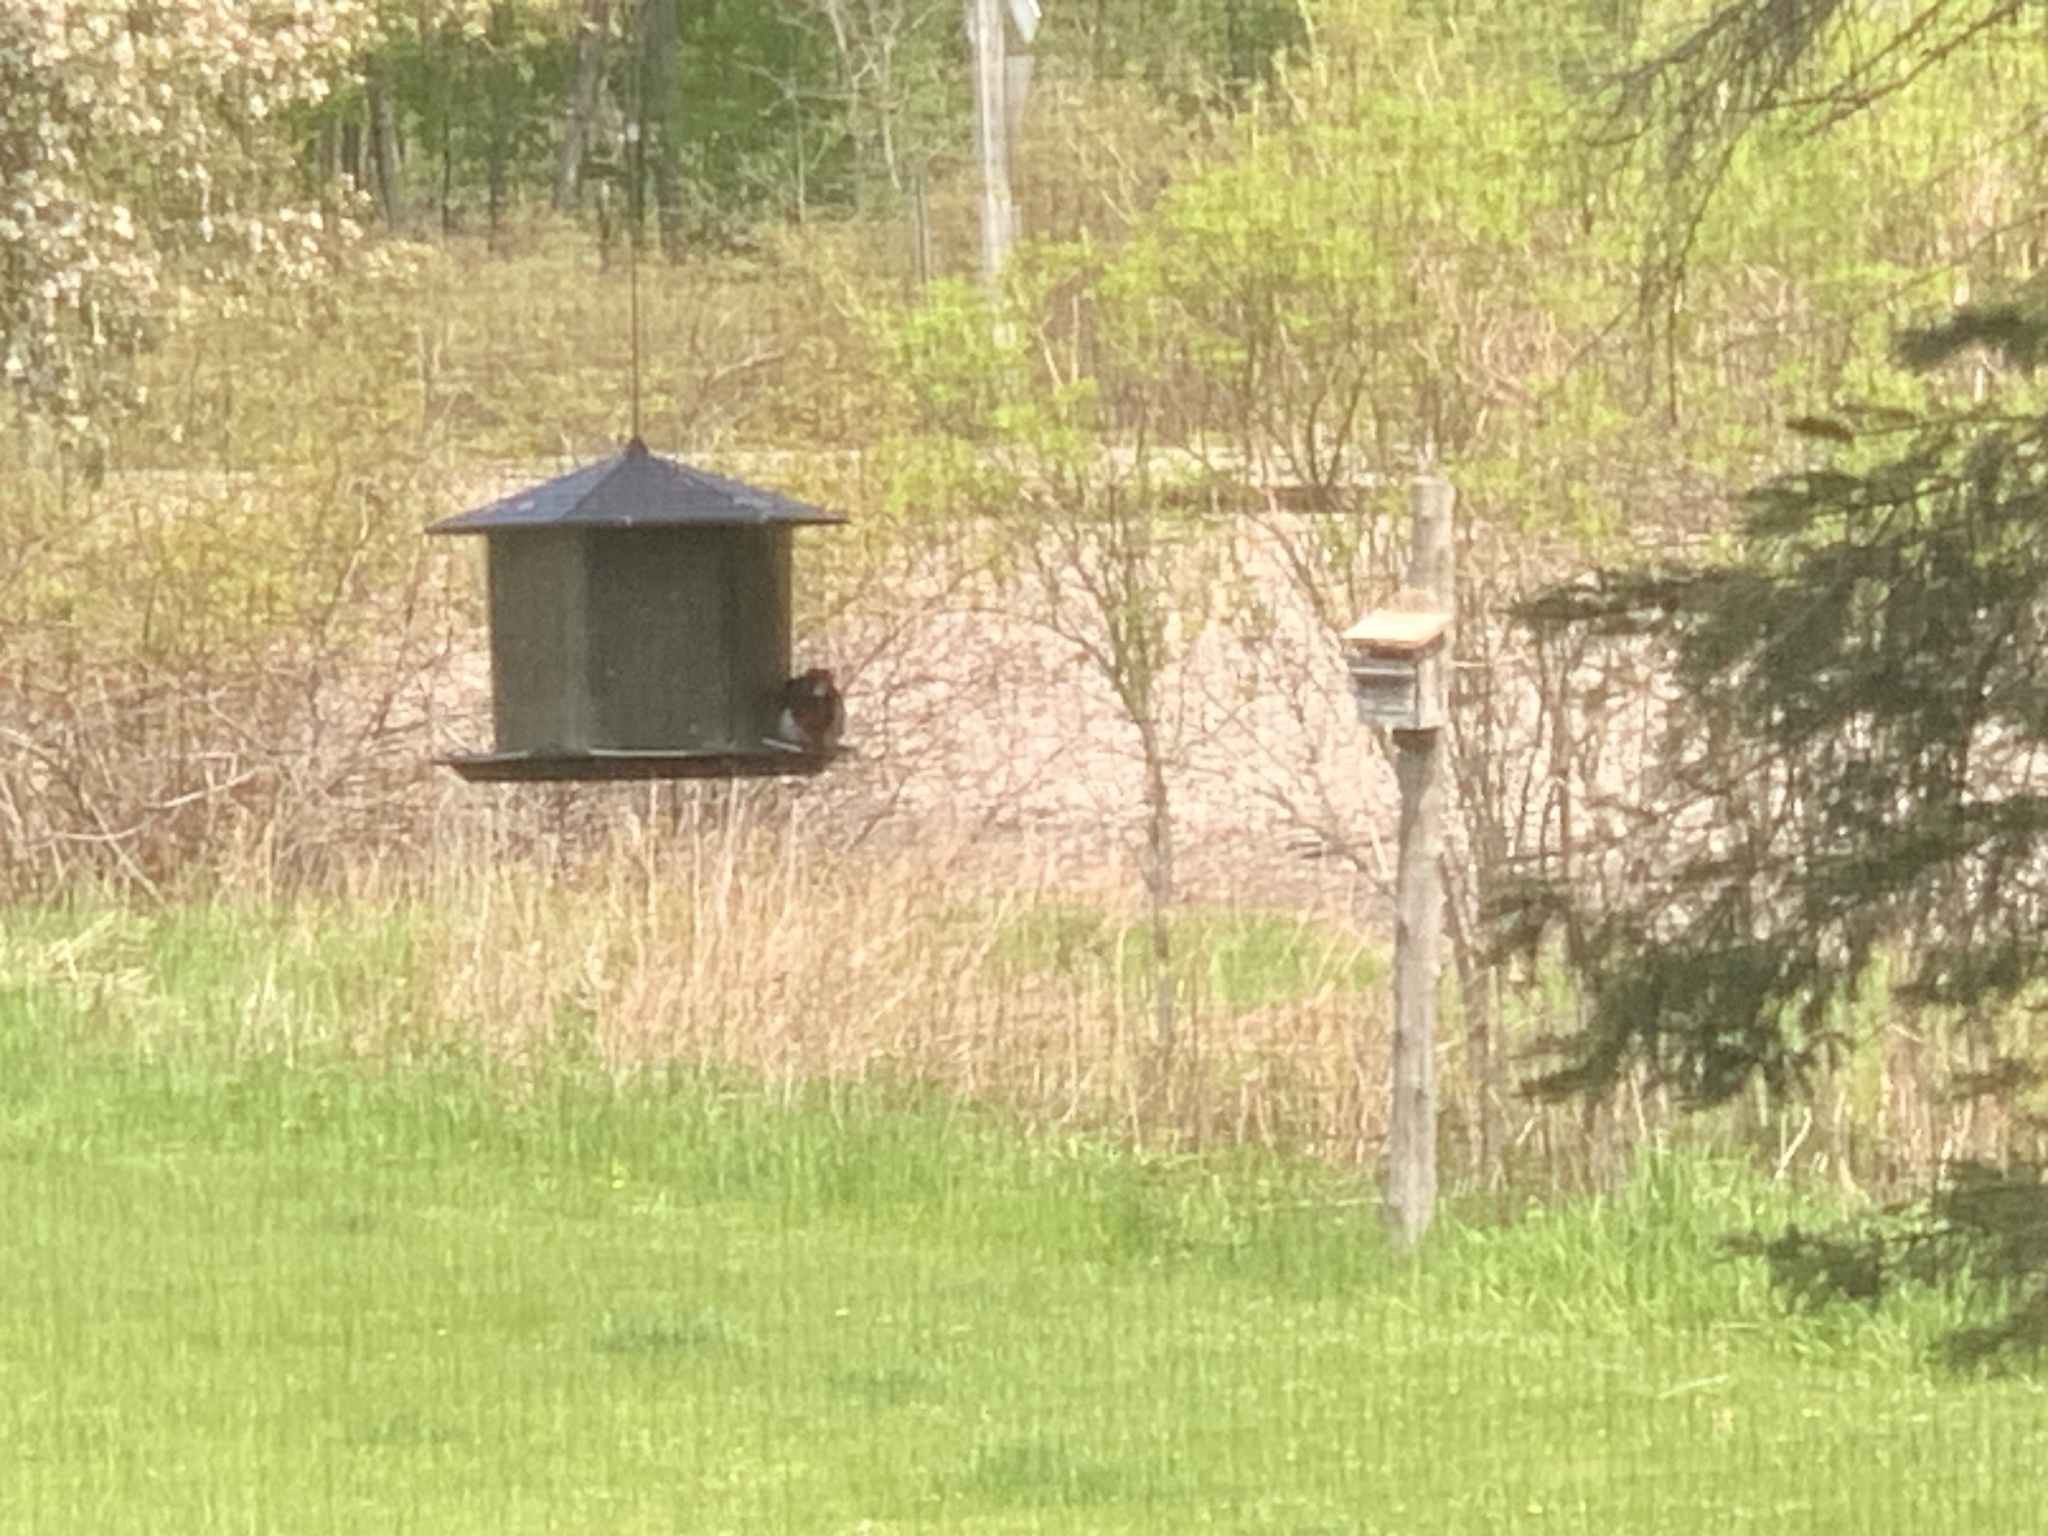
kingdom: Animalia
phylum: Chordata
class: Aves
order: Passeriformes
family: Cardinalidae
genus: Pheucticus
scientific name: Pheucticus ludovicianus
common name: Rose-breasted grosbeak
